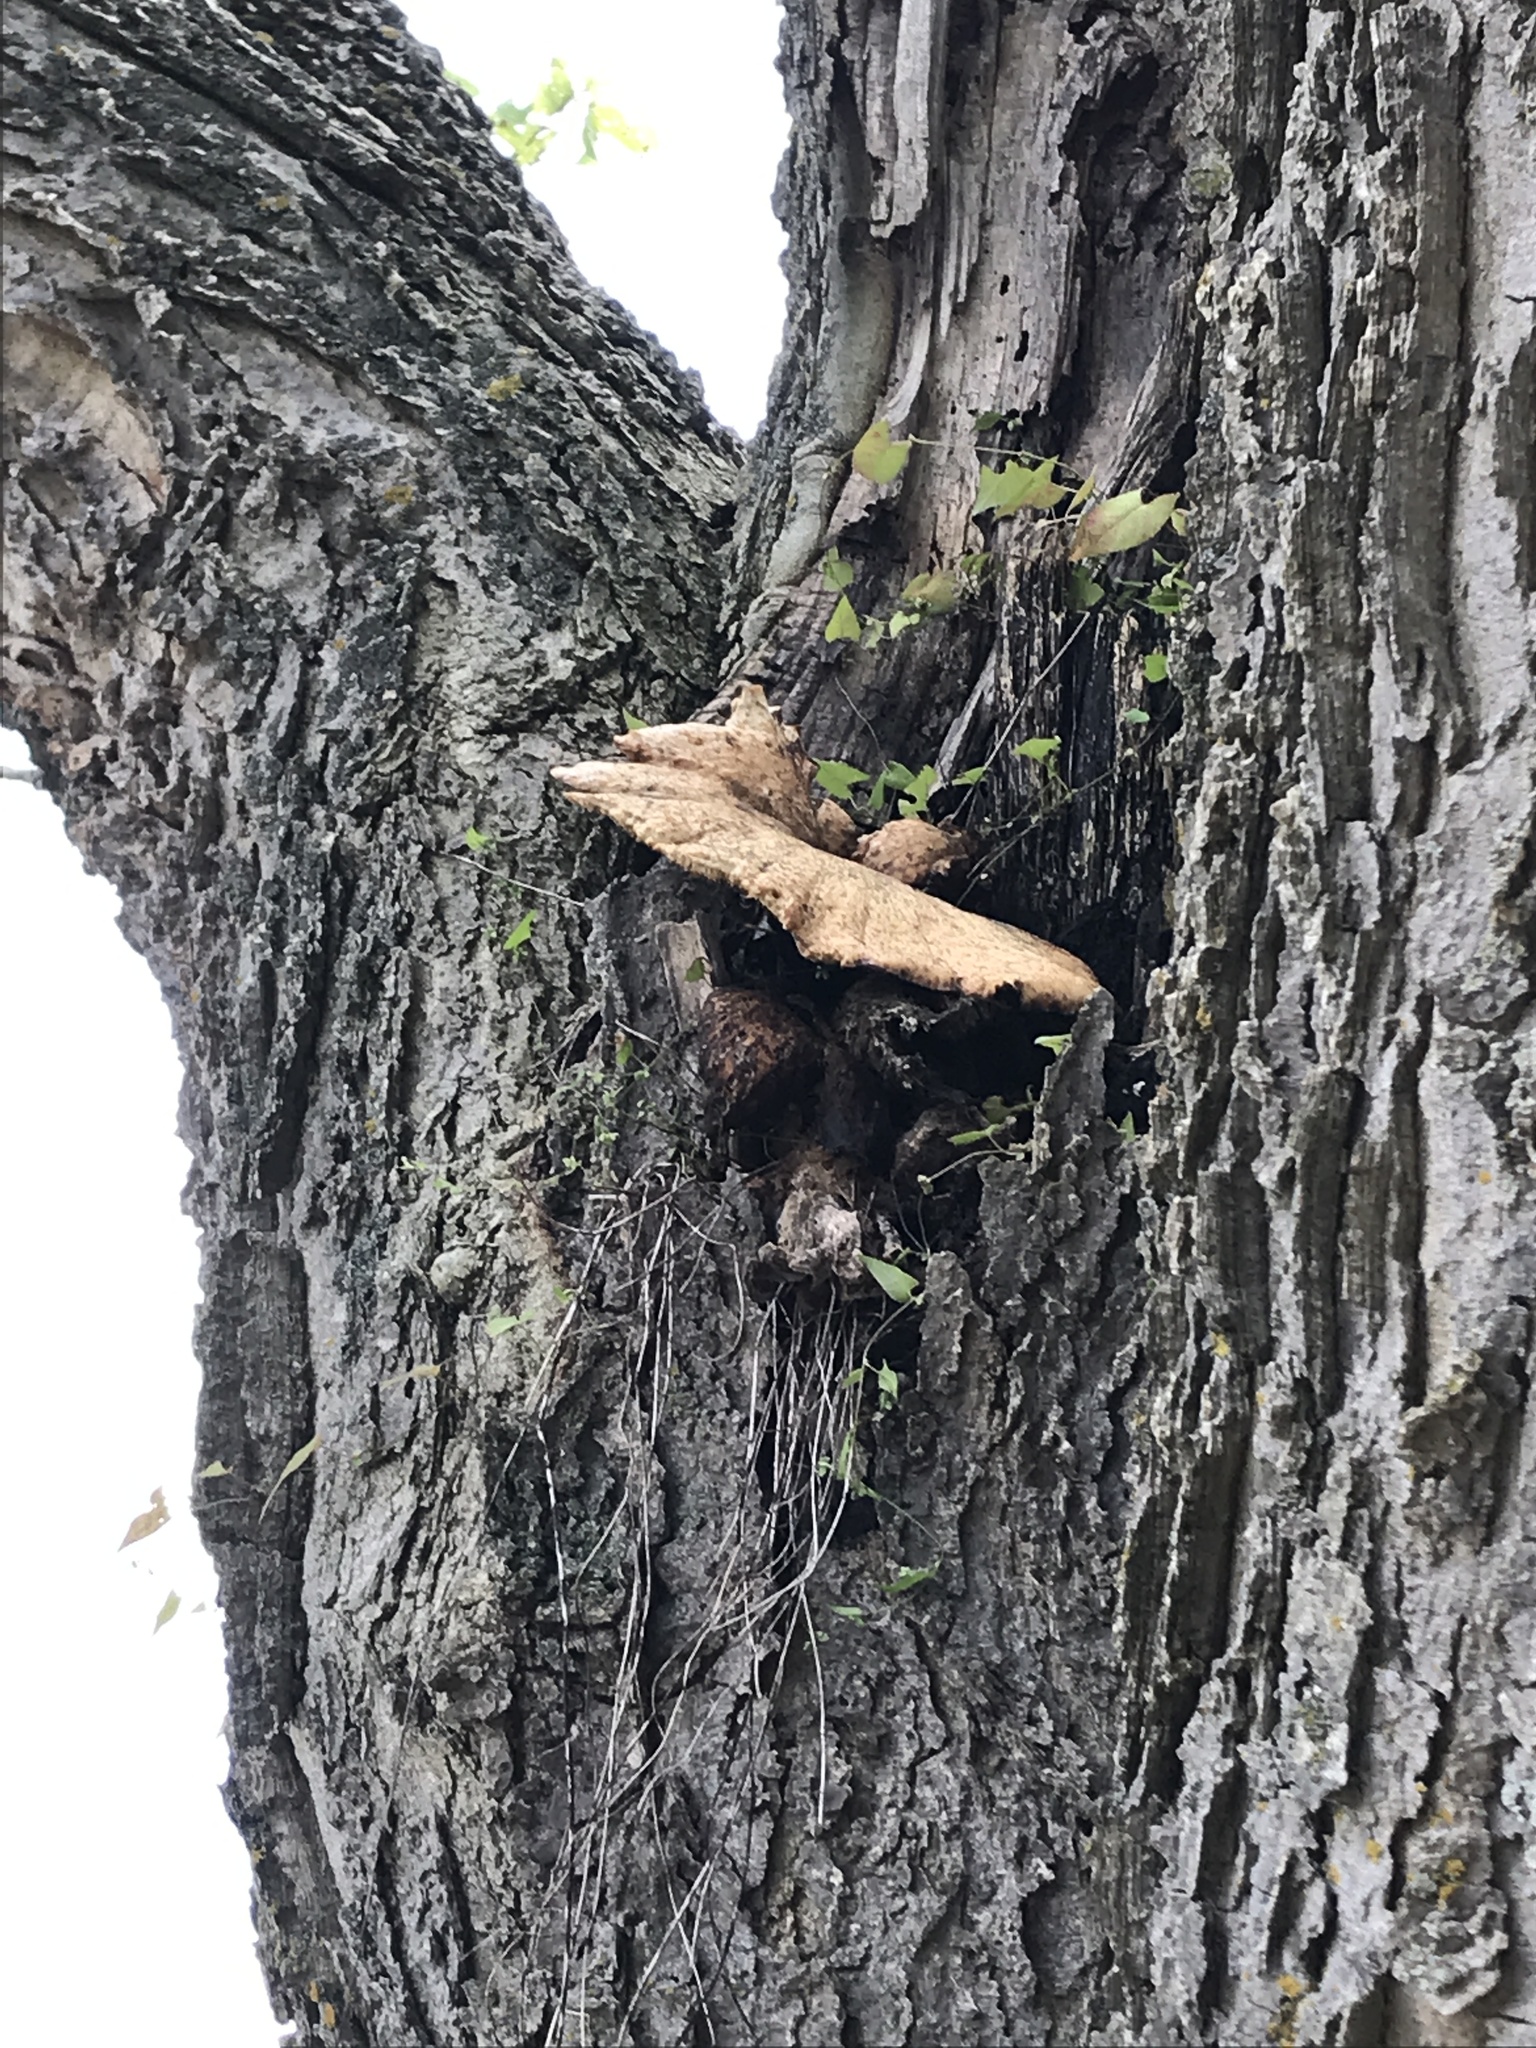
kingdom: Fungi
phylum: Basidiomycota
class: Agaricomycetes
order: Polyporales
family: Polyporaceae
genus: Cerioporus
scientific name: Cerioporus squamosus
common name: Dryad's saddle
